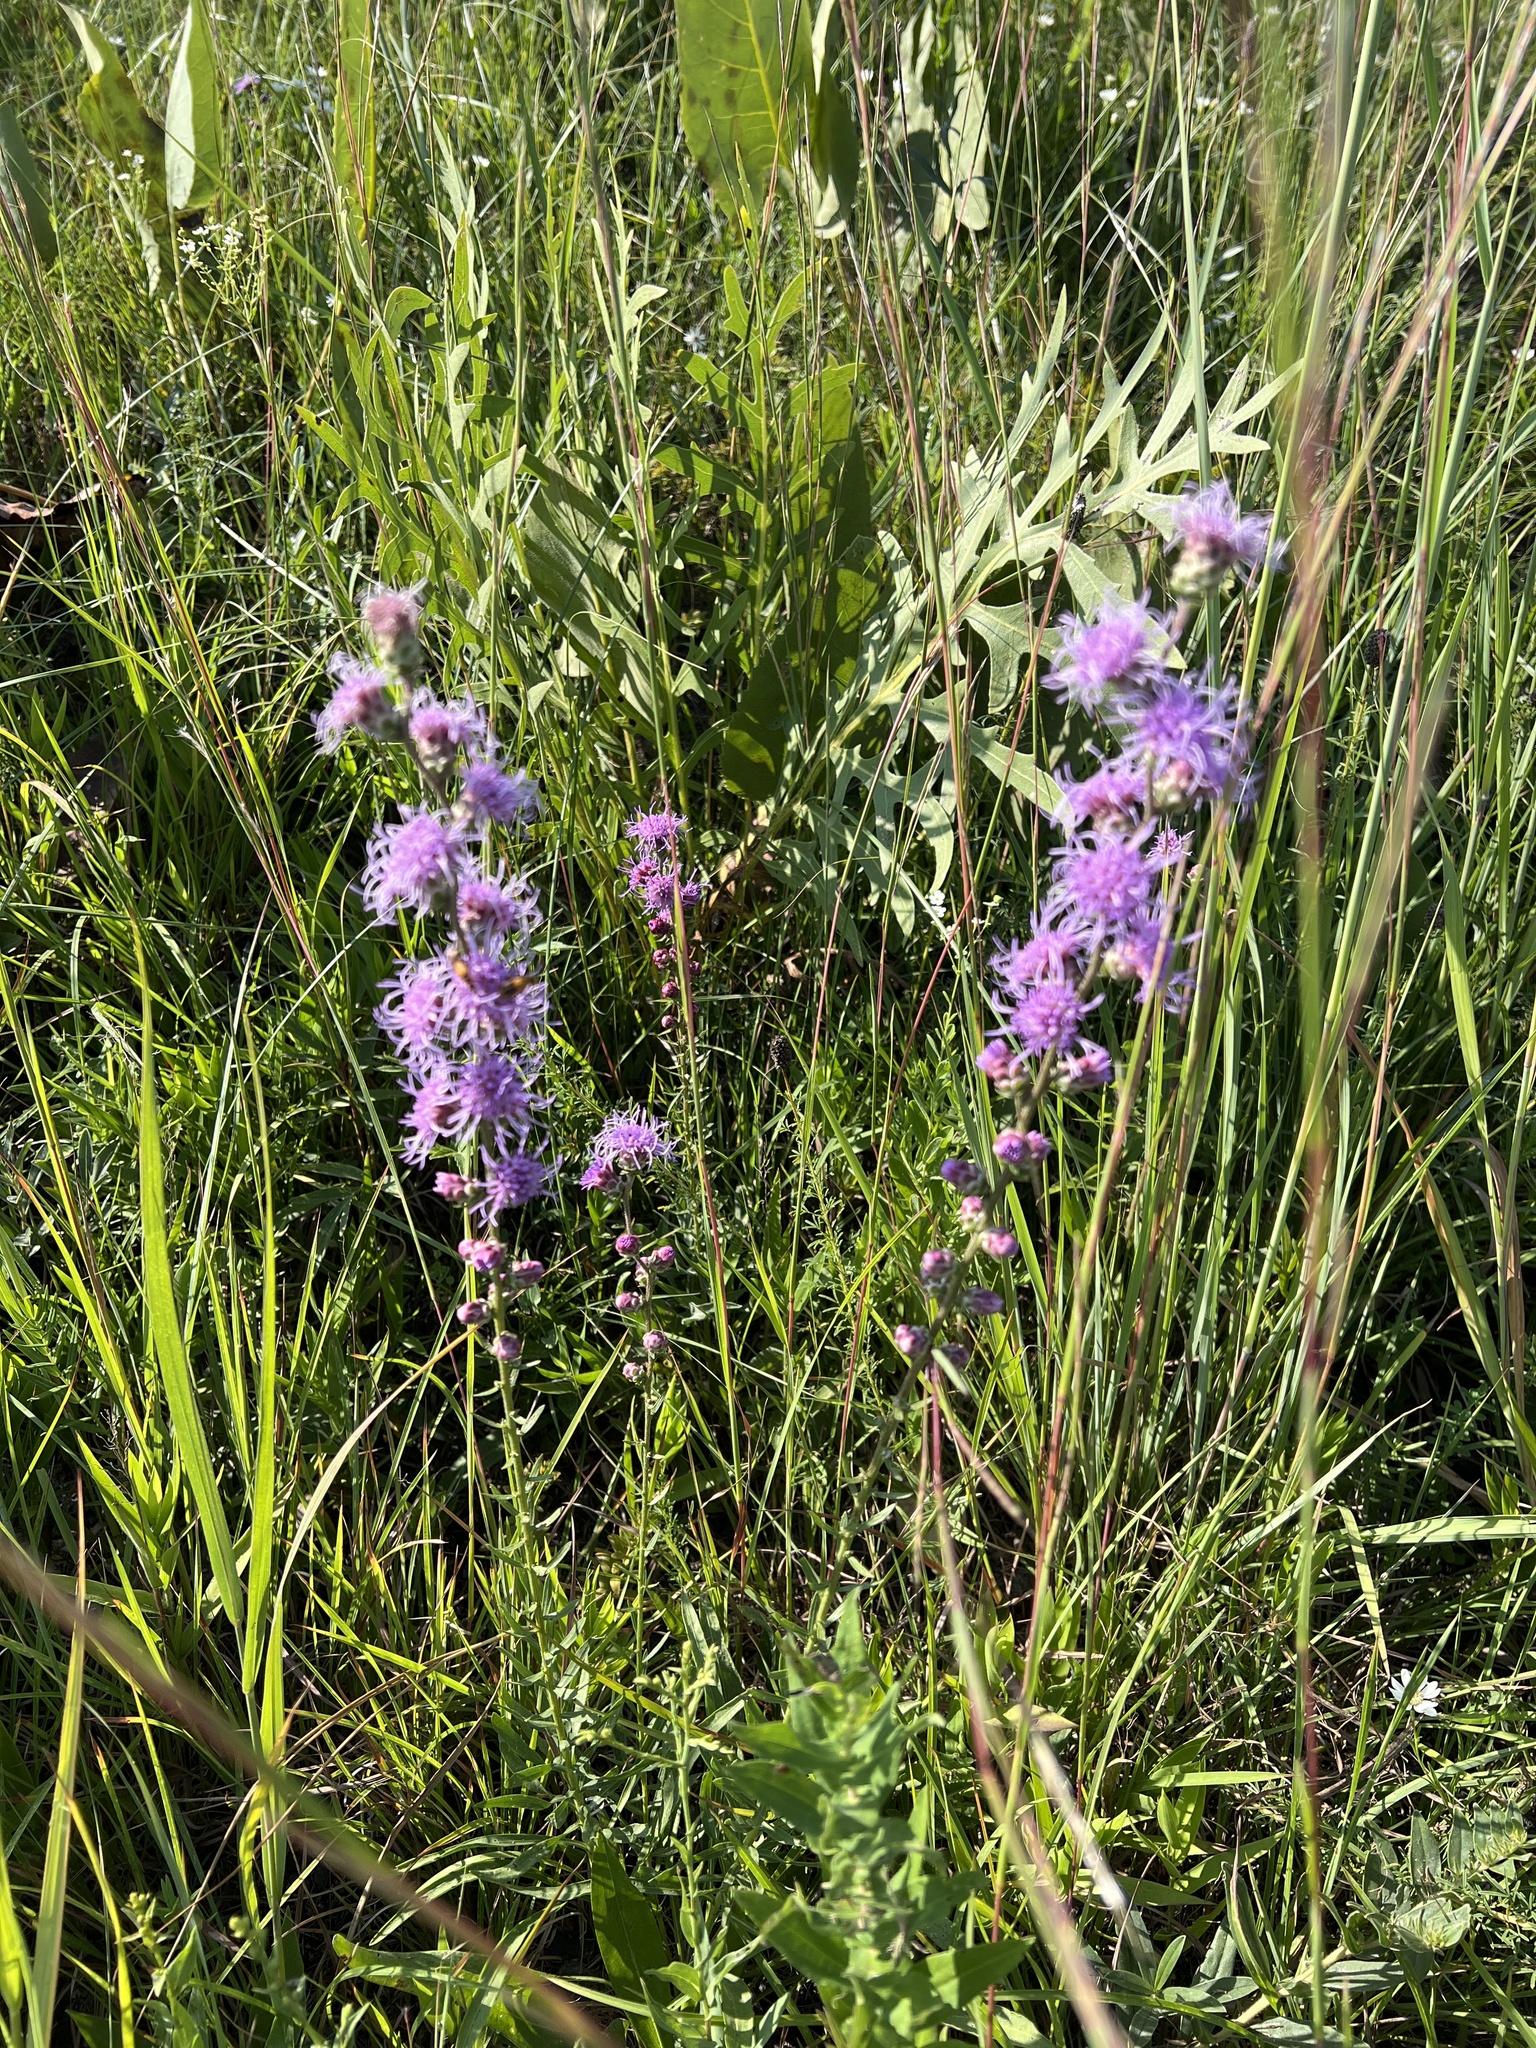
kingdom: Plantae
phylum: Tracheophyta
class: Magnoliopsida
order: Asterales
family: Asteraceae
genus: Liatris
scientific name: Liatris aspera
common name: Lacerate blazing-star
